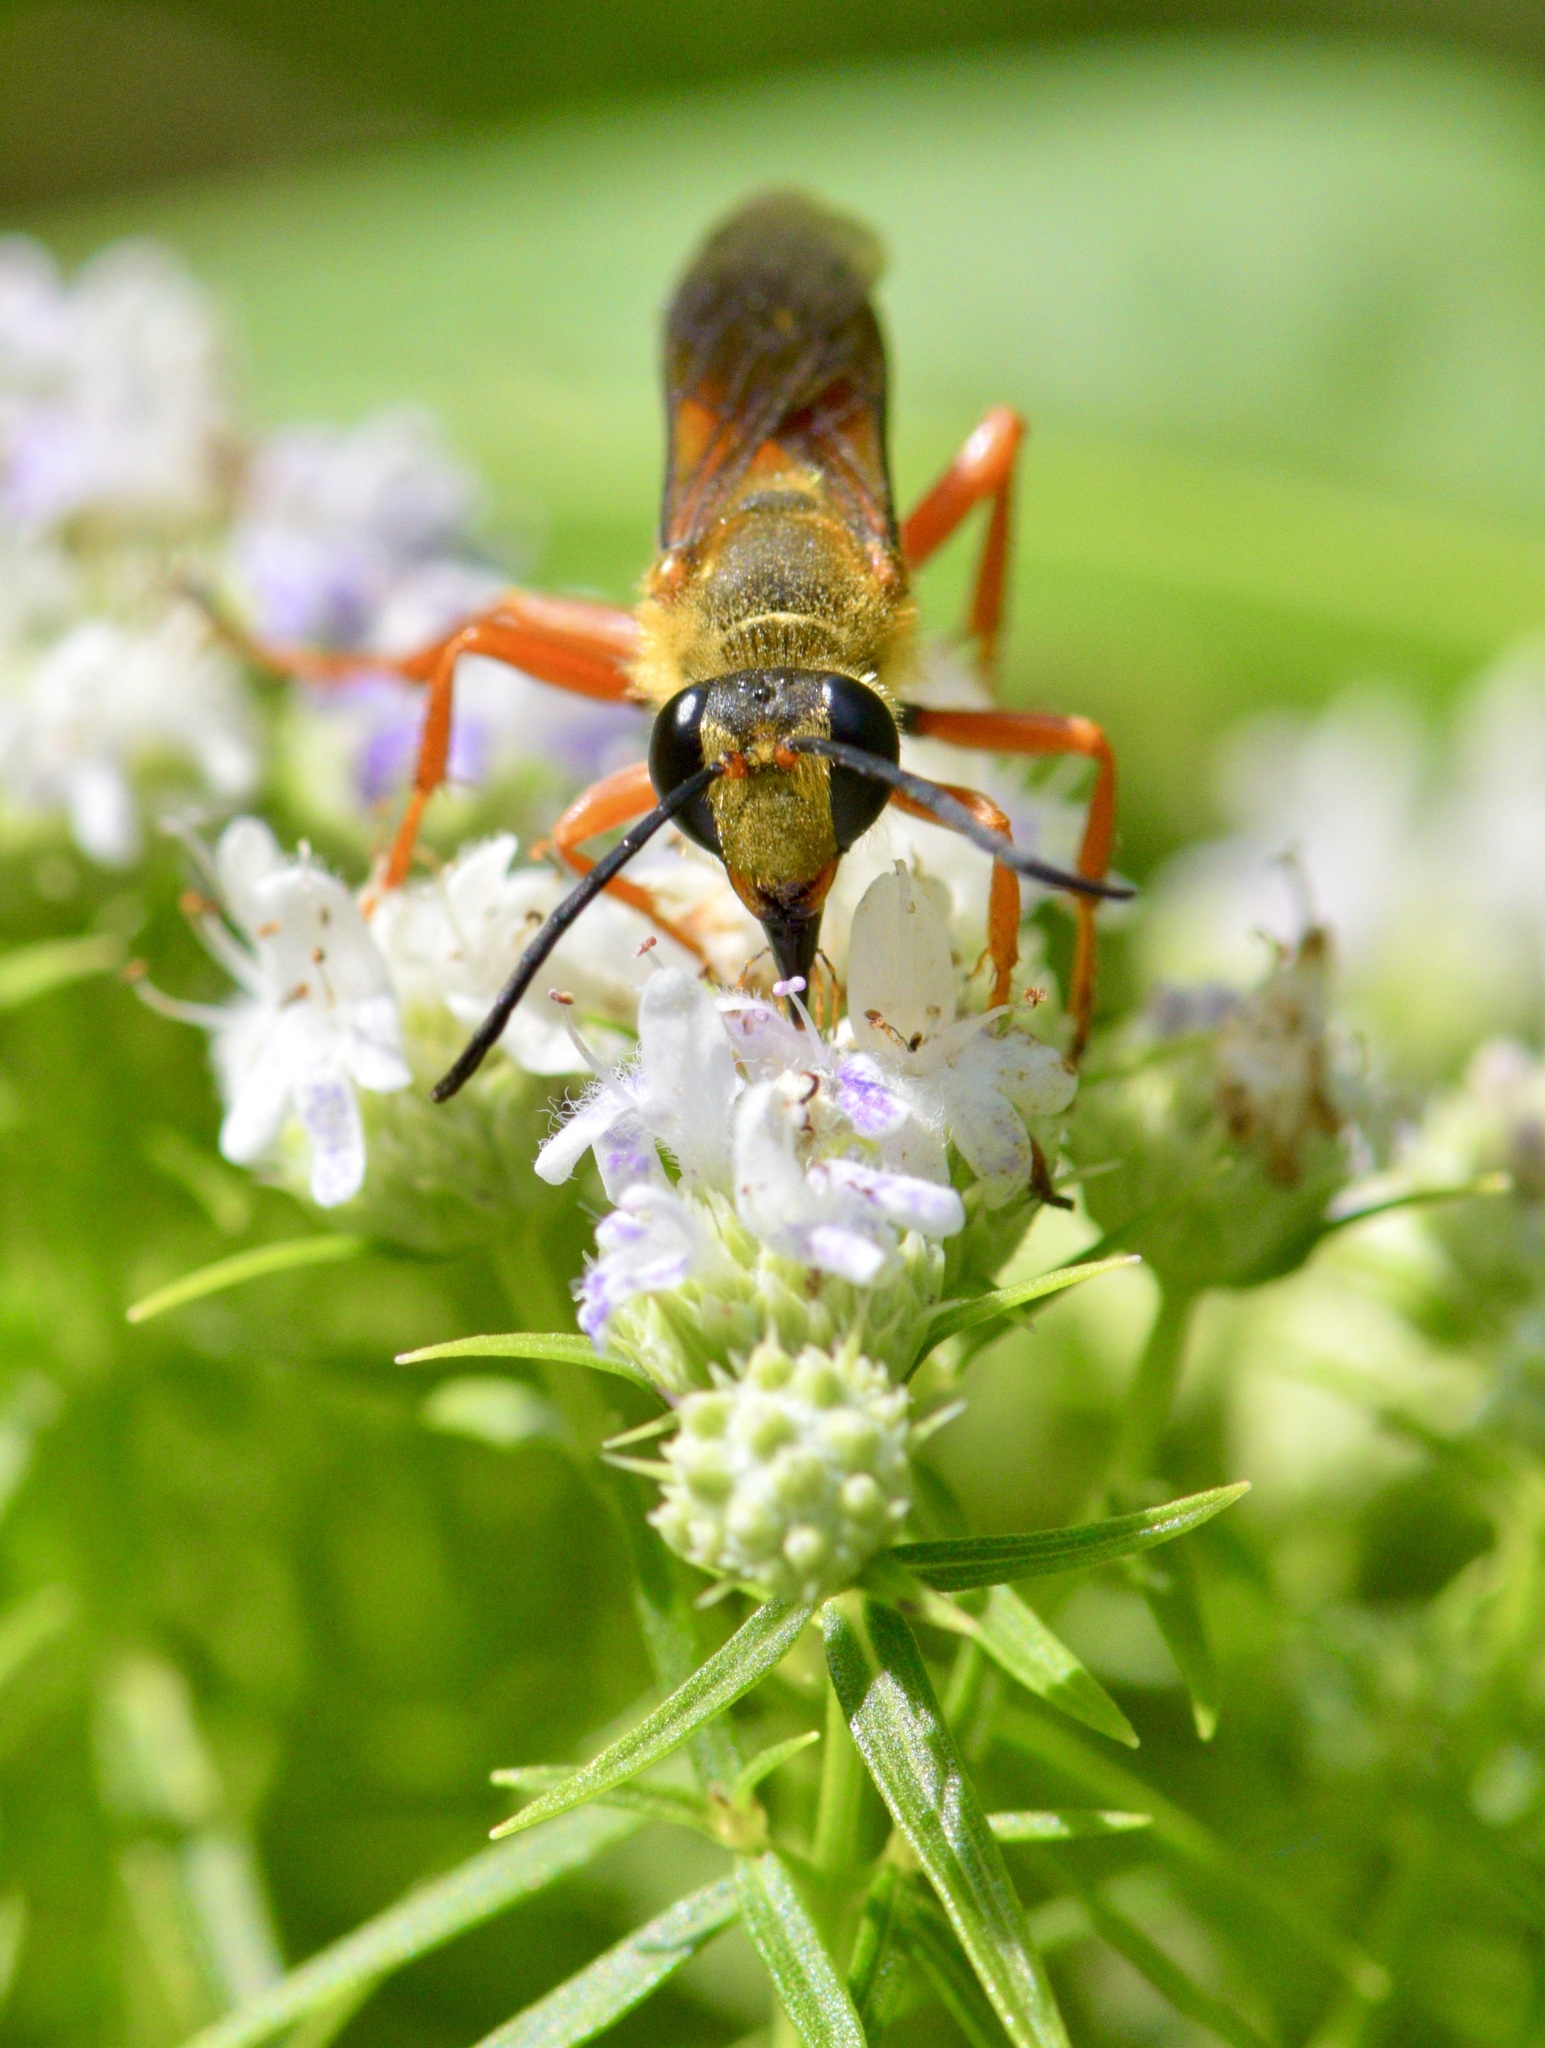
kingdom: Animalia
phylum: Arthropoda
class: Insecta
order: Hymenoptera
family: Sphecidae
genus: Sphex
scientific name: Sphex ichneumoneus
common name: Great golden digger wasp
